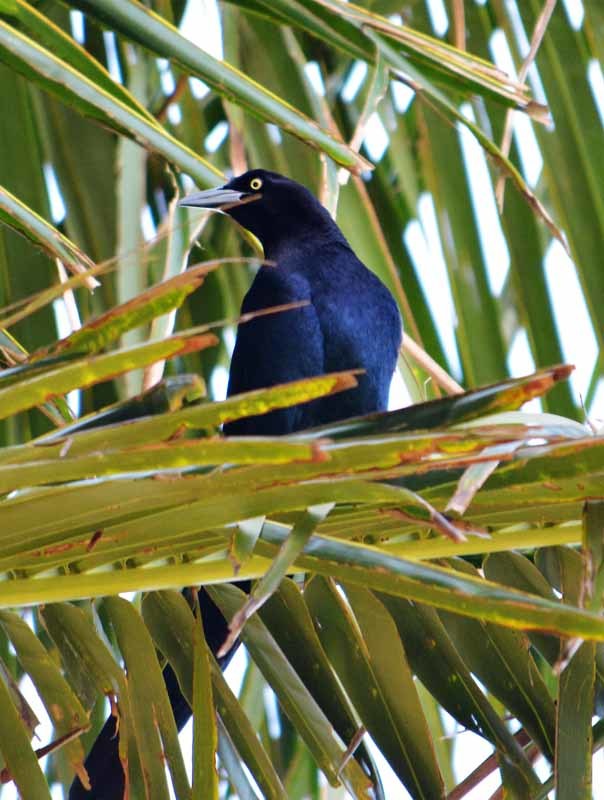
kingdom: Animalia
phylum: Chordata
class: Aves
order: Passeriformes
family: Icteridae
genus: Quiscalus
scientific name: Quiscalus mexicanus
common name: Great-tailed grackle
